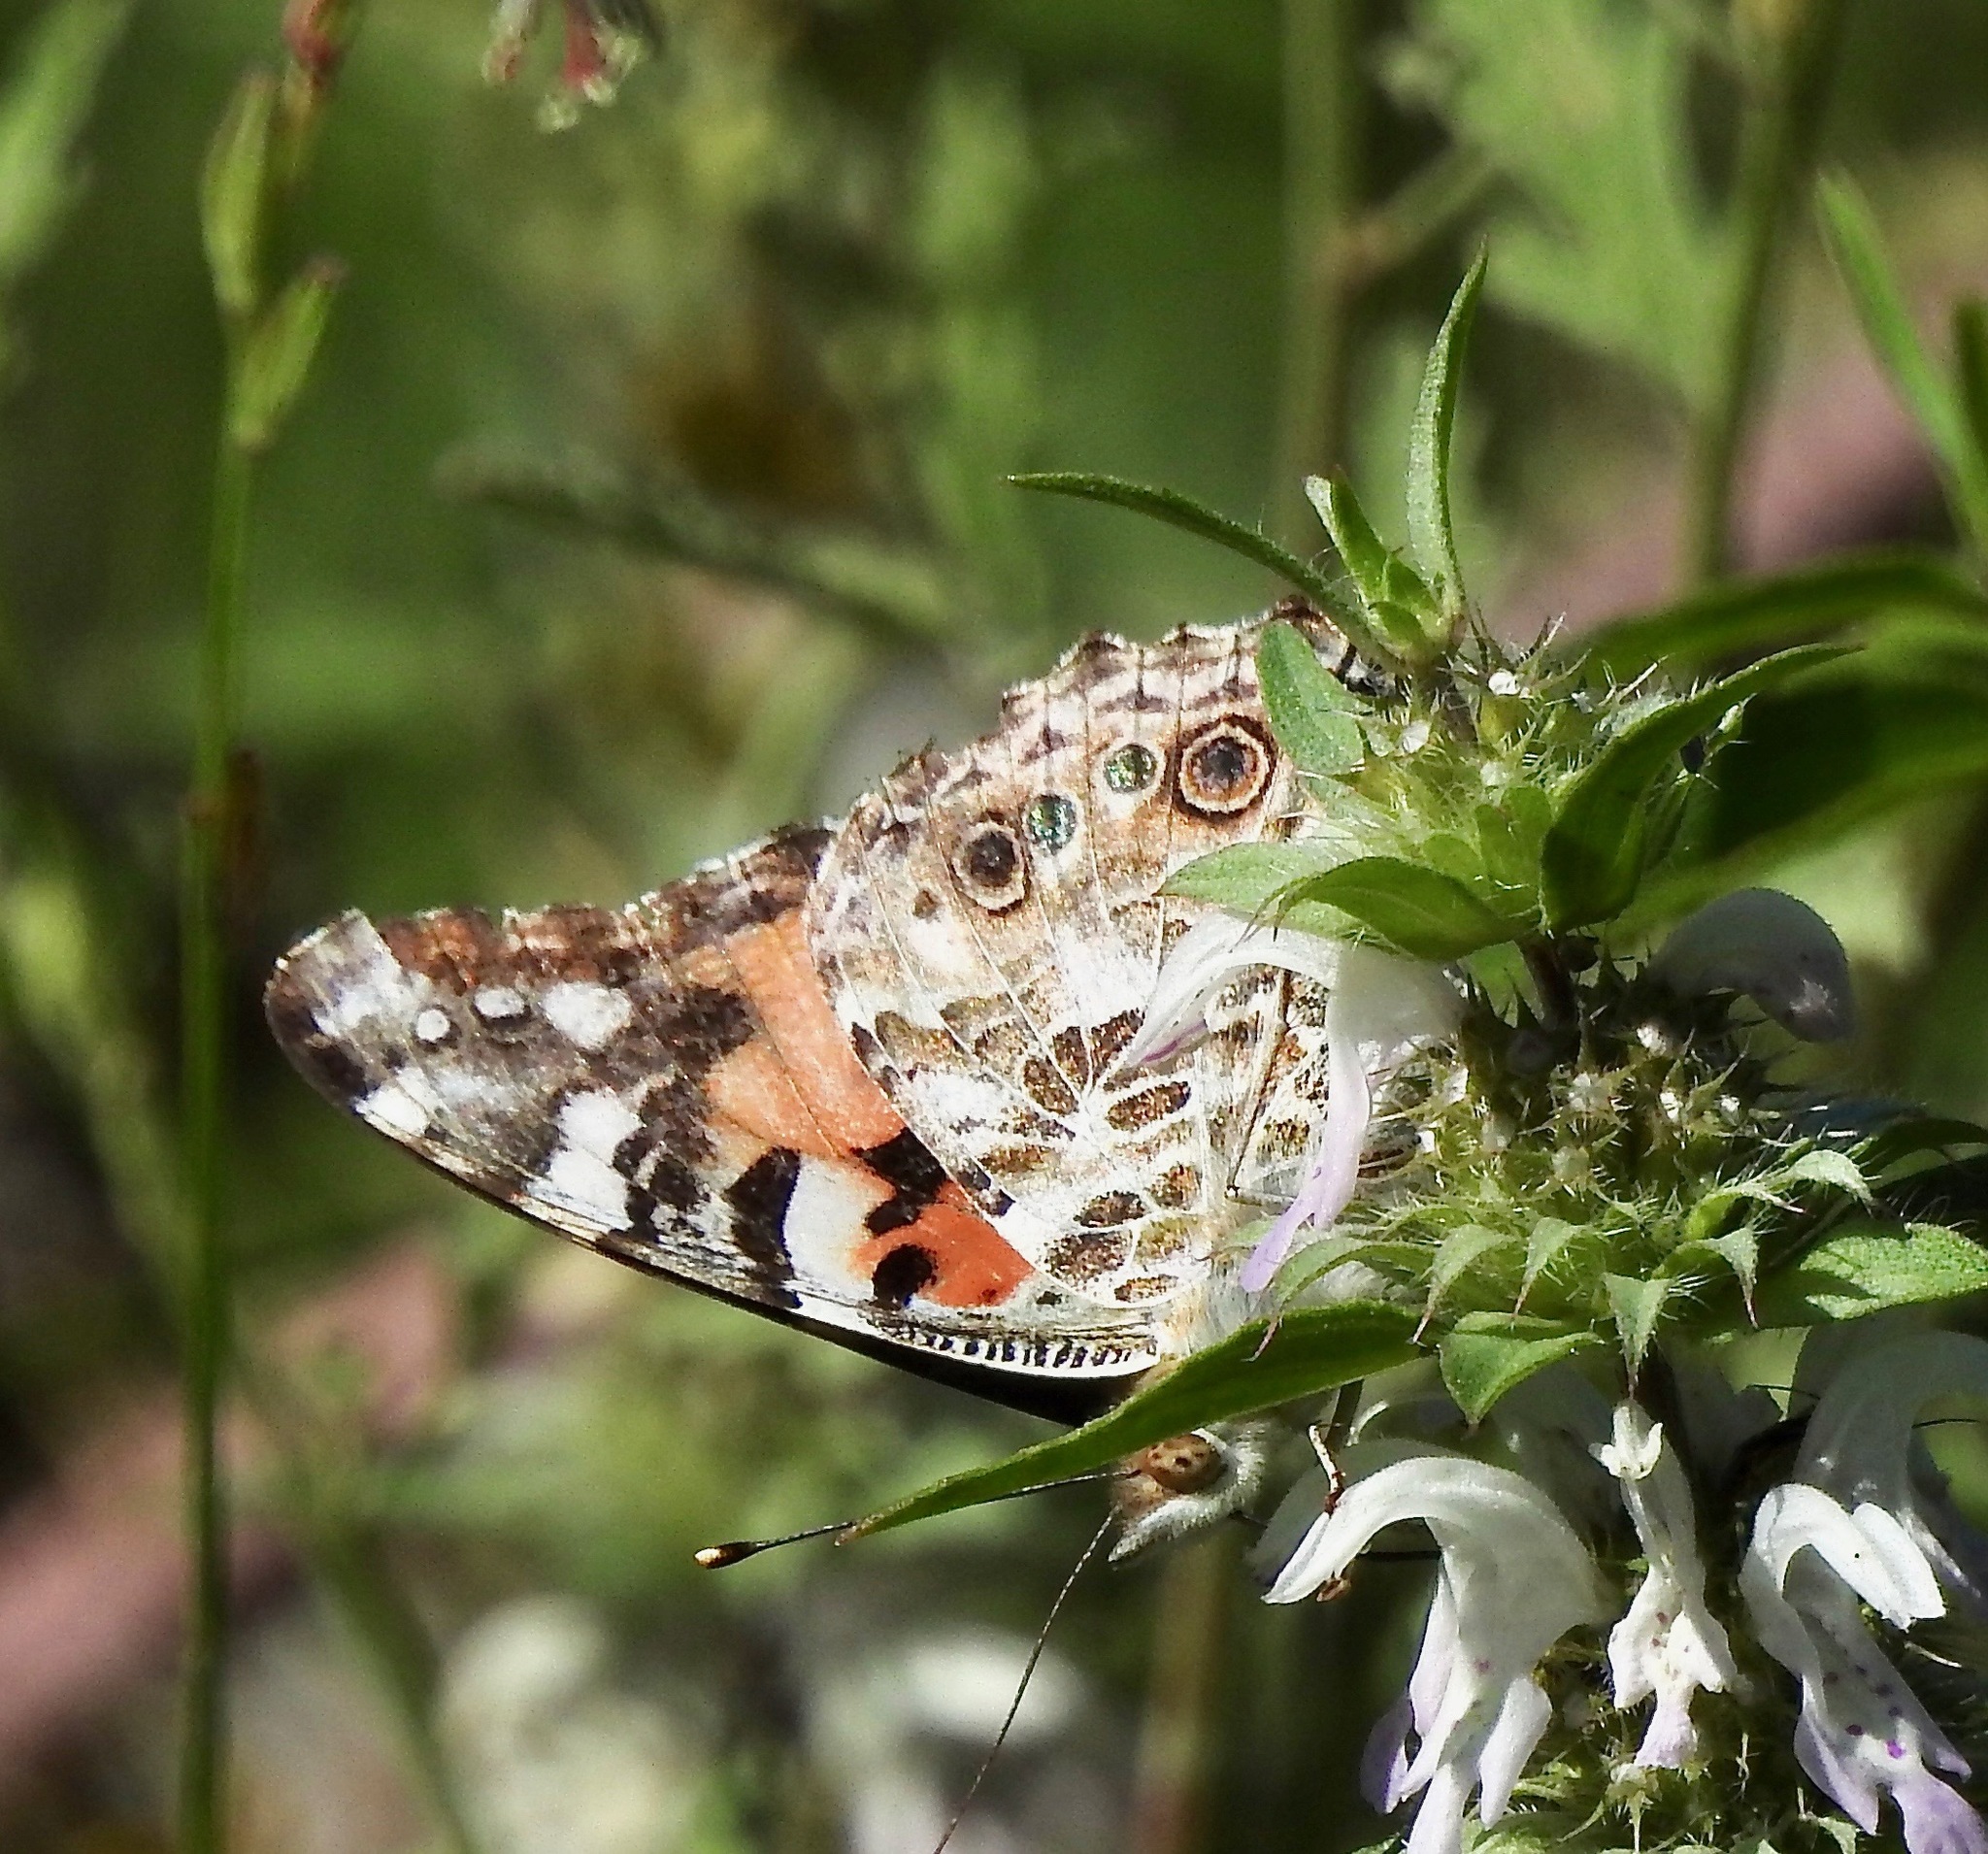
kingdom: Animalia
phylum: Arthropoda
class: Insecta
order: Lepidoptera
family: Nymphalidae
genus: Vanessa
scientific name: Vanessa cardui
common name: Painted lady
